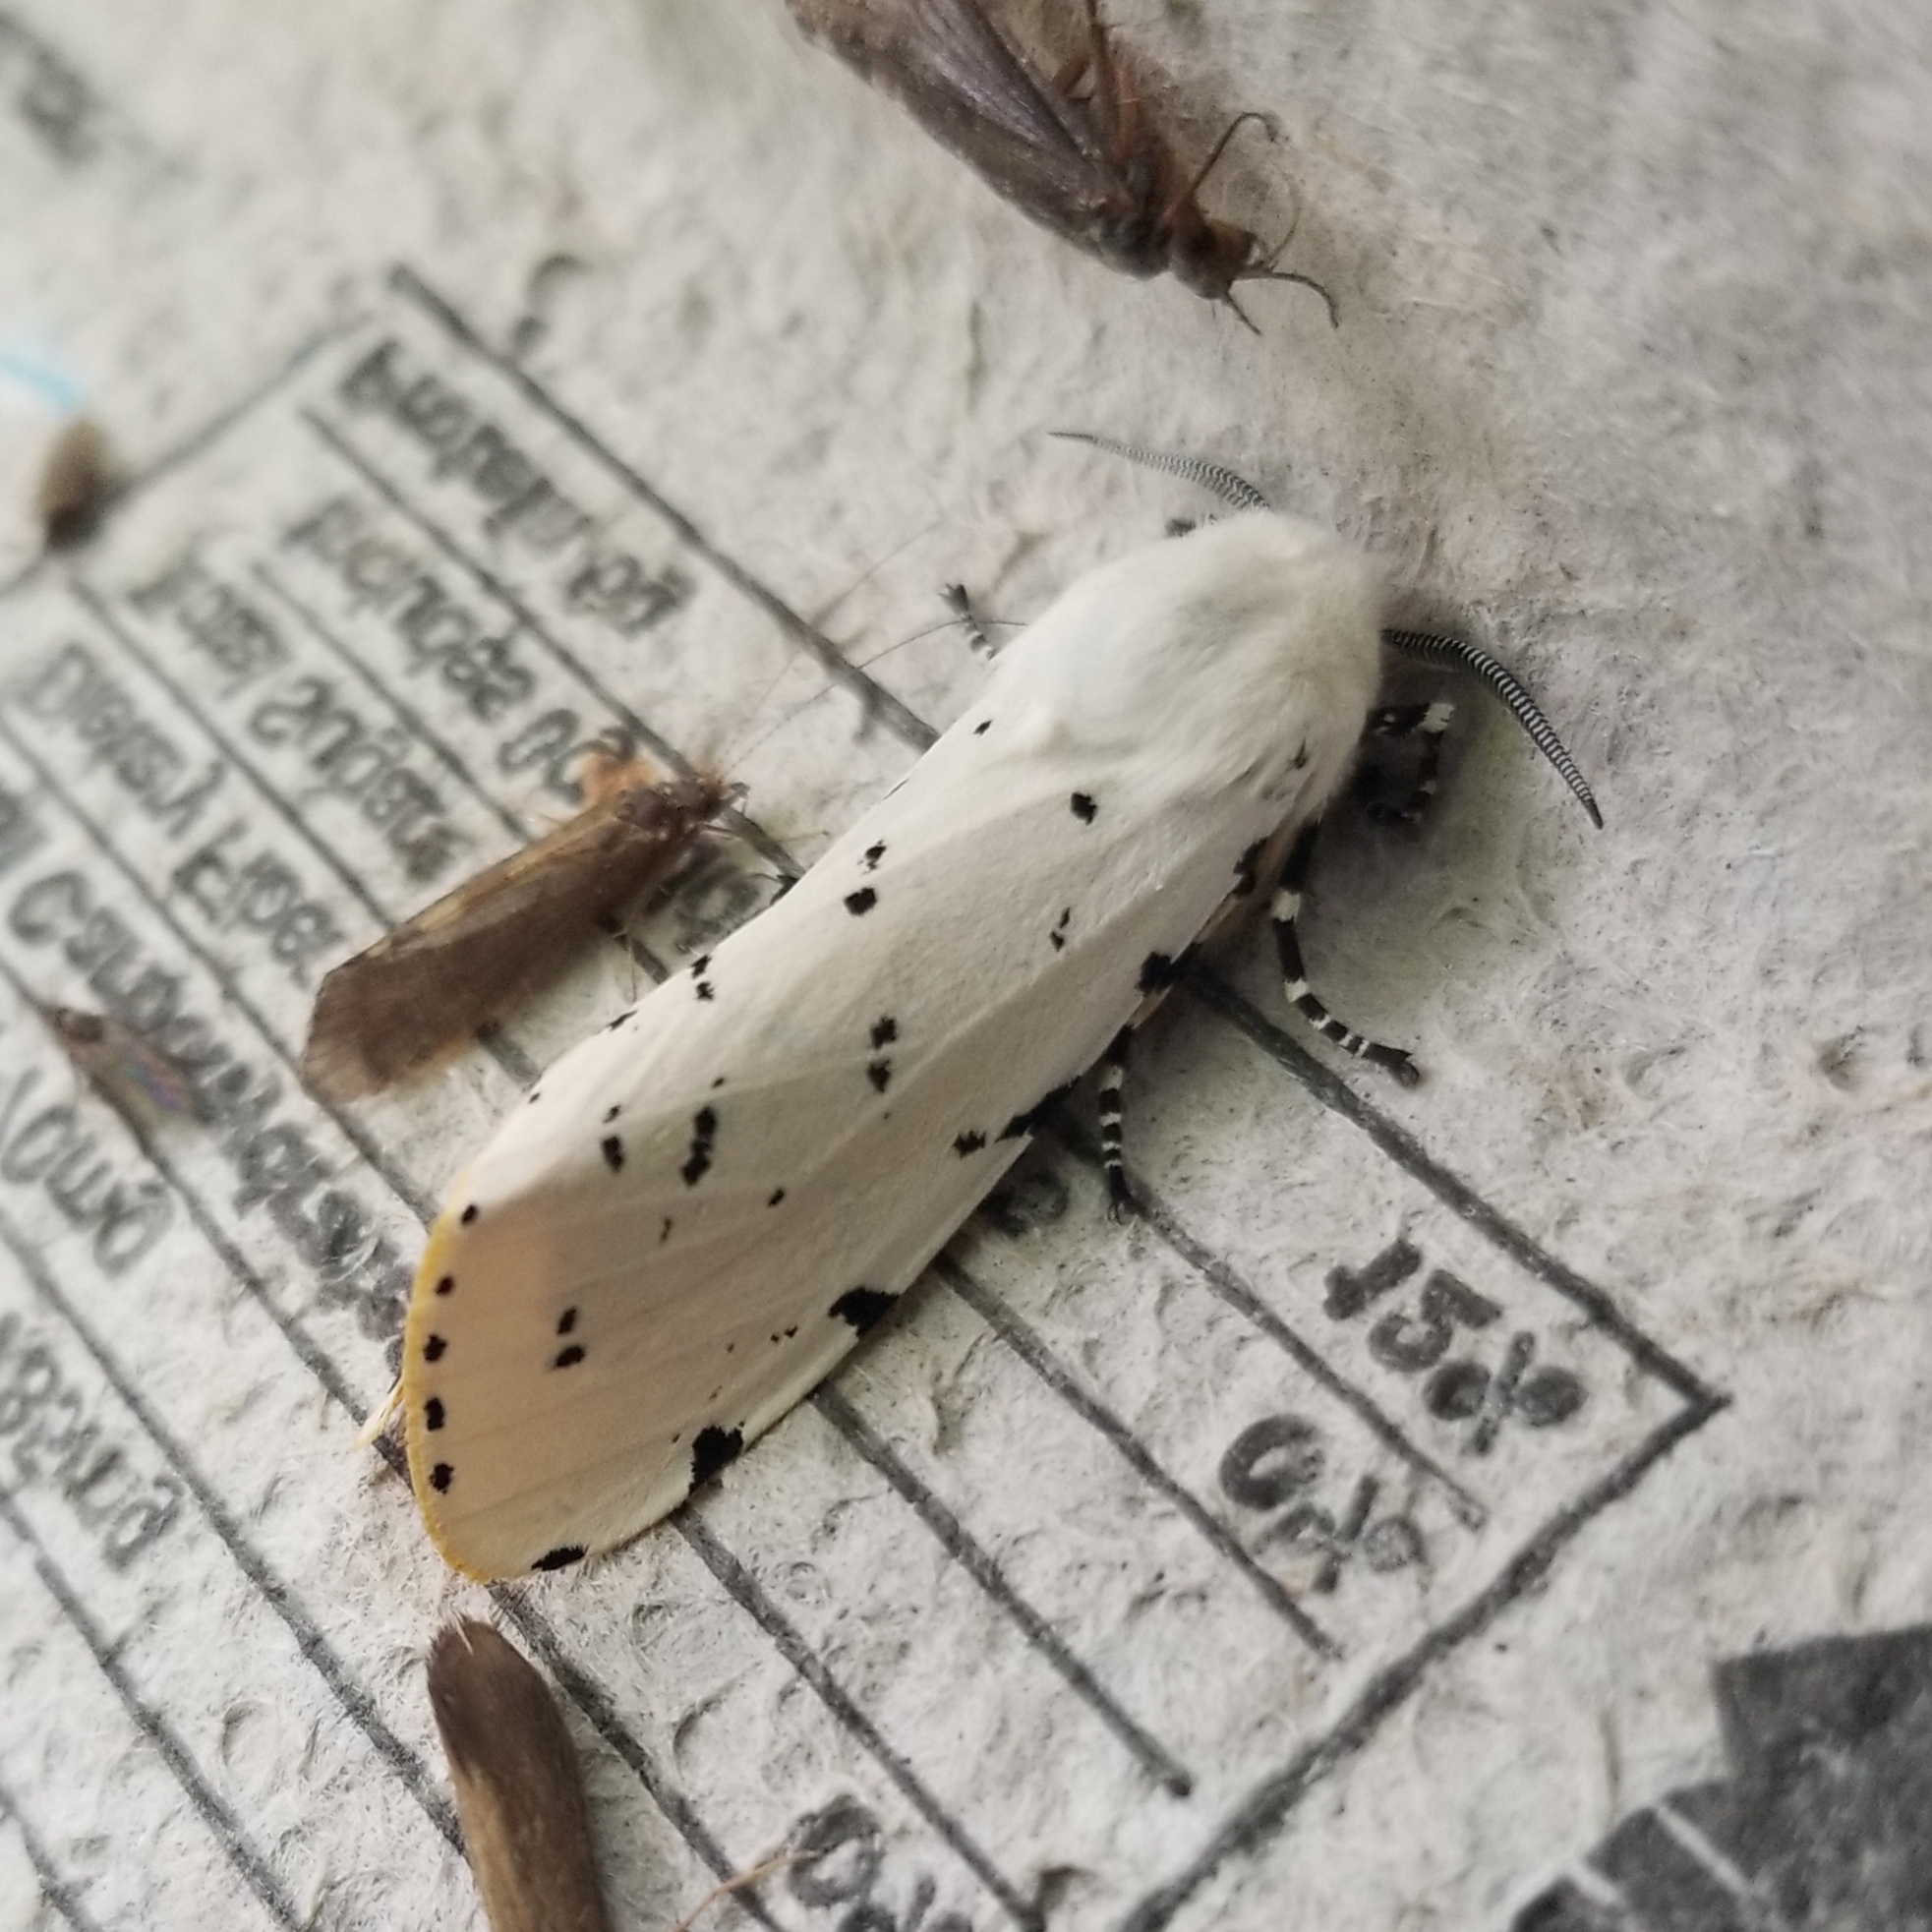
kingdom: Animalia
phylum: Arthropoda
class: Insecta
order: Lepidoptera
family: Erebidae
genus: Estigmene
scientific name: Estigmene acrea
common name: Salt marsh moth
